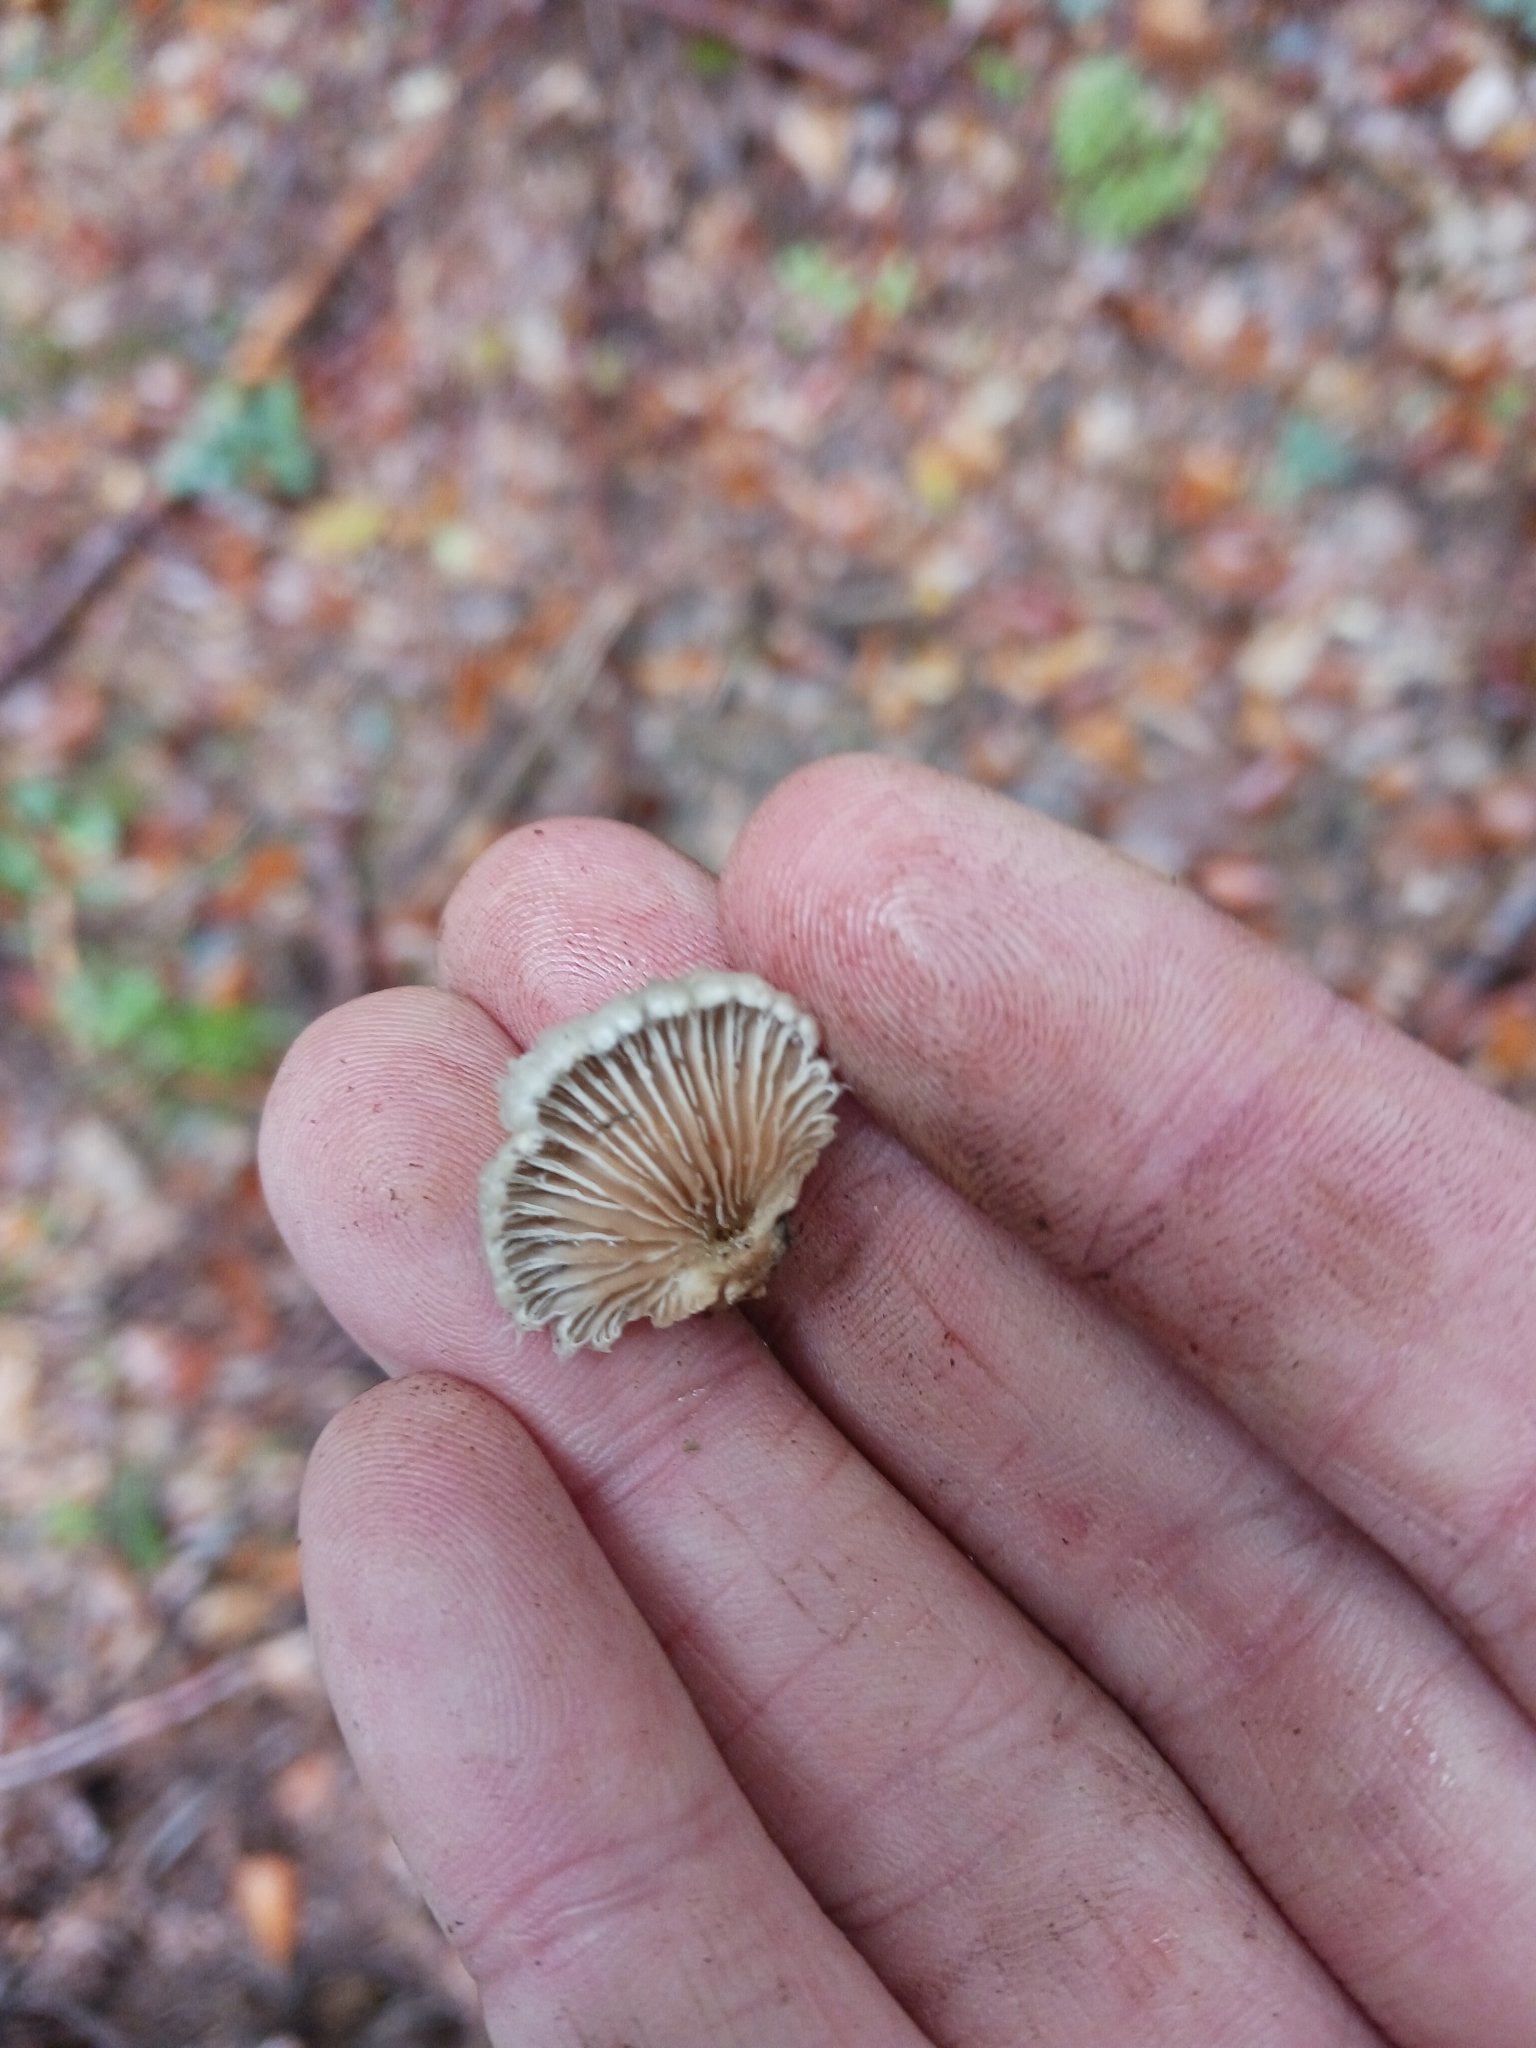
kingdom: Fungi
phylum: Basidiomycota
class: Agaricomycetes
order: Agaricales
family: Schizophyllaceae
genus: Schizophyllum
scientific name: Schizophyllum commune
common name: Common porecrust
